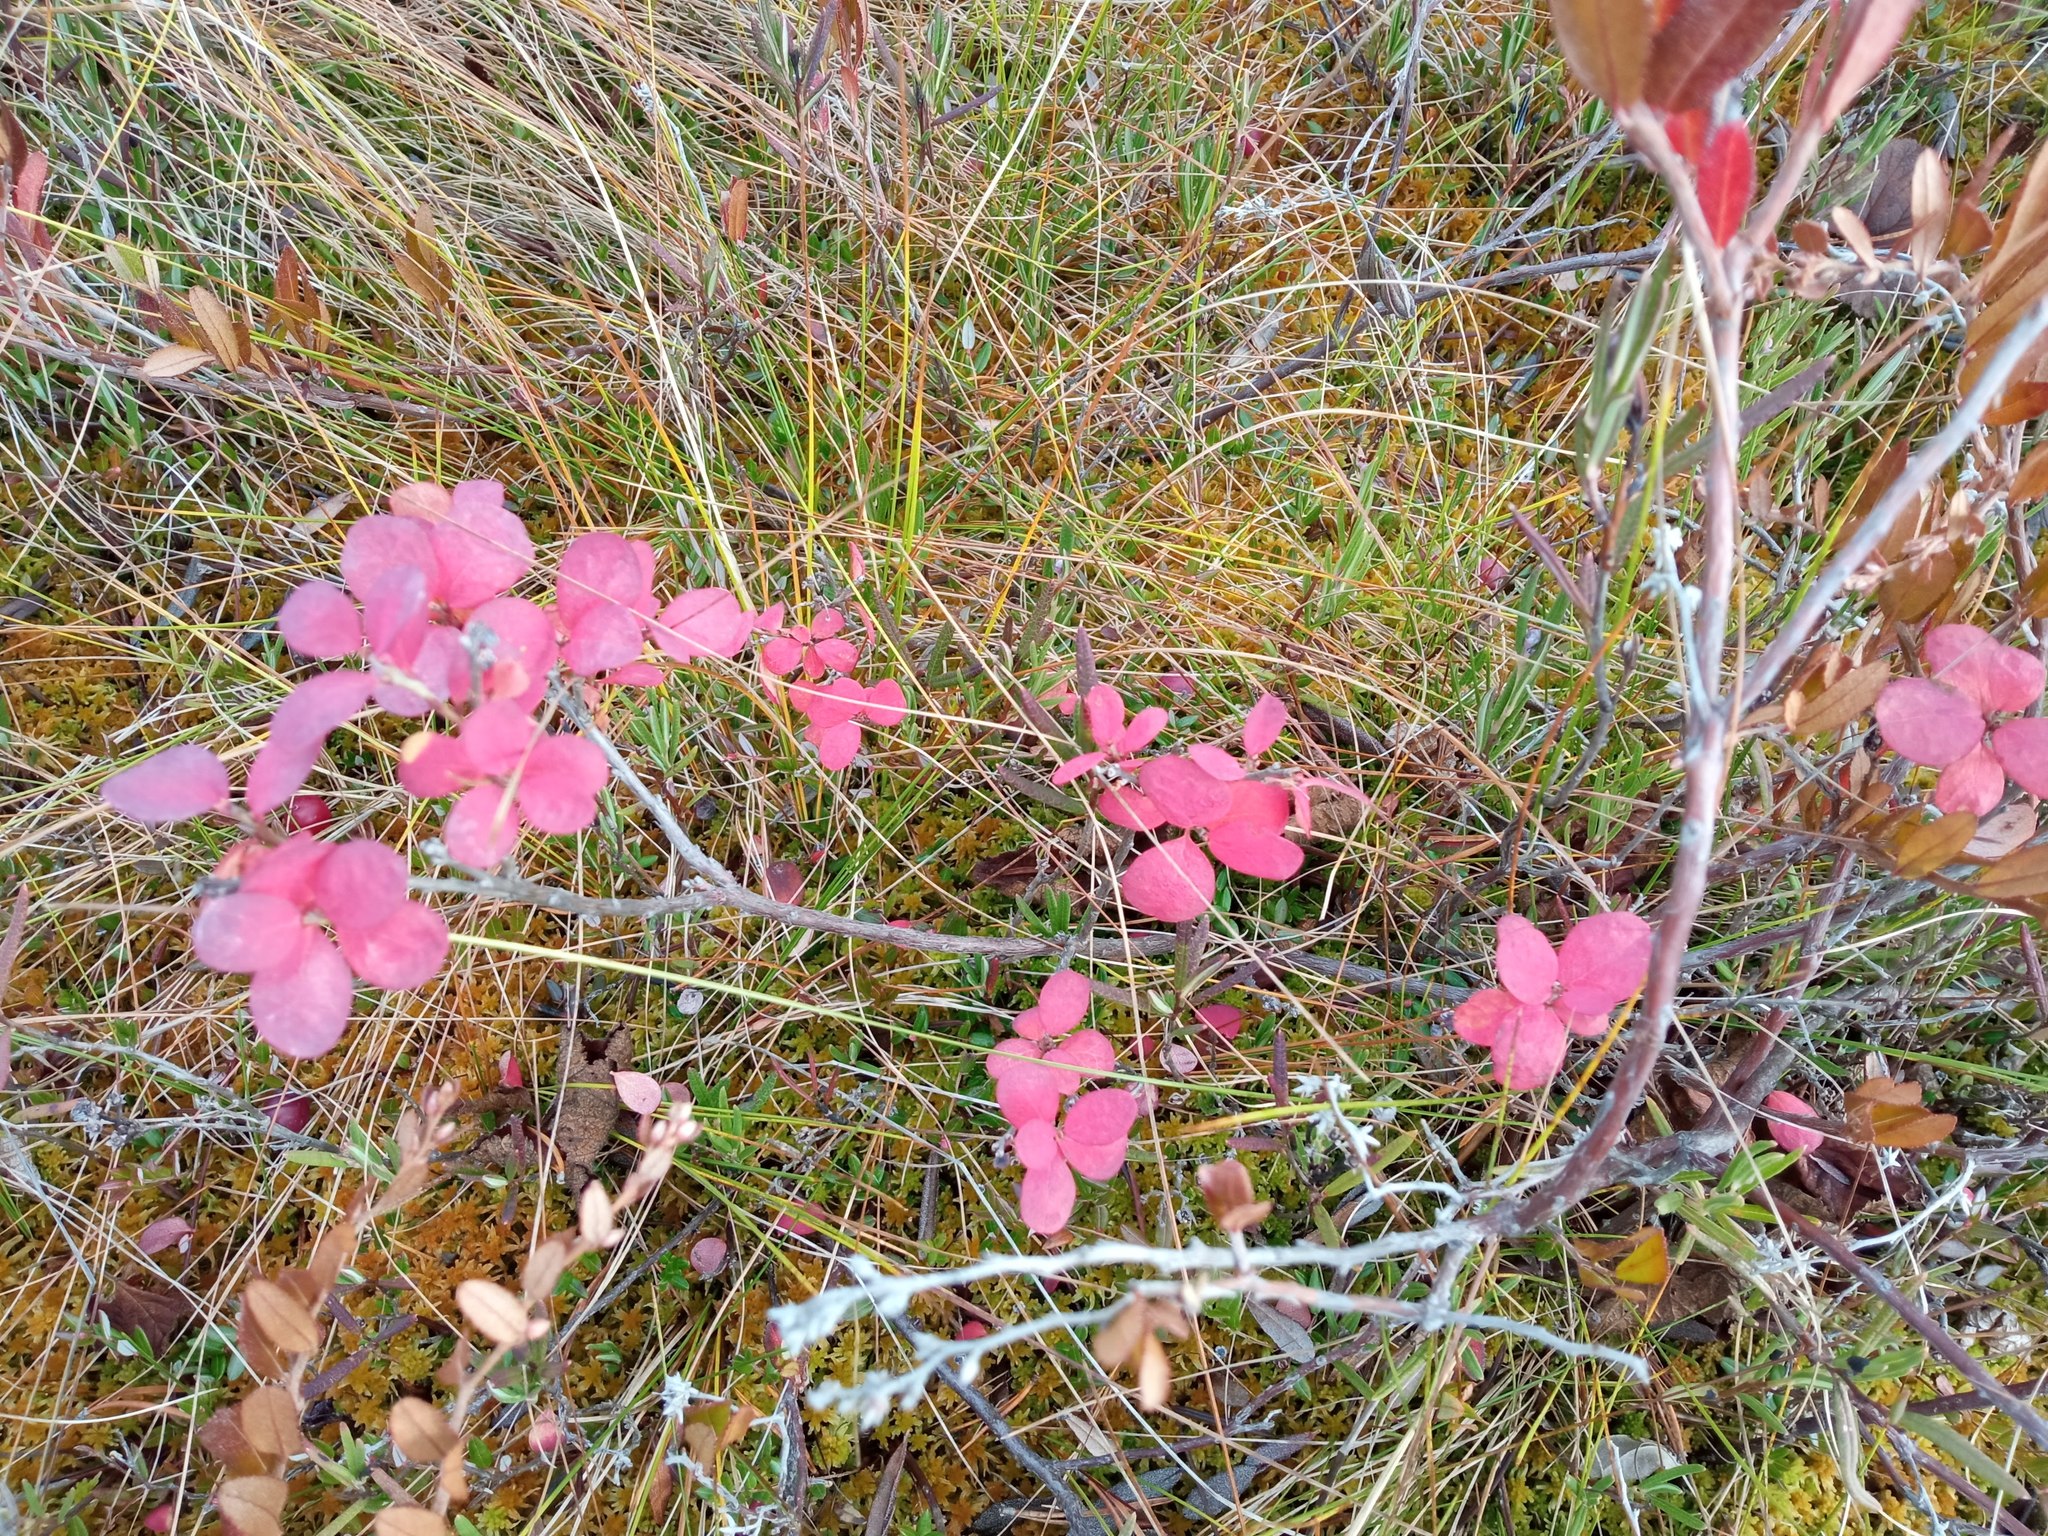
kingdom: Plantae
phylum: Tracheophyta
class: Magnoliopsida
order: Ericales
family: Ericaceae
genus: Vaccinium
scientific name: Vaccinium uliginosum
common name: Bog bilberry
